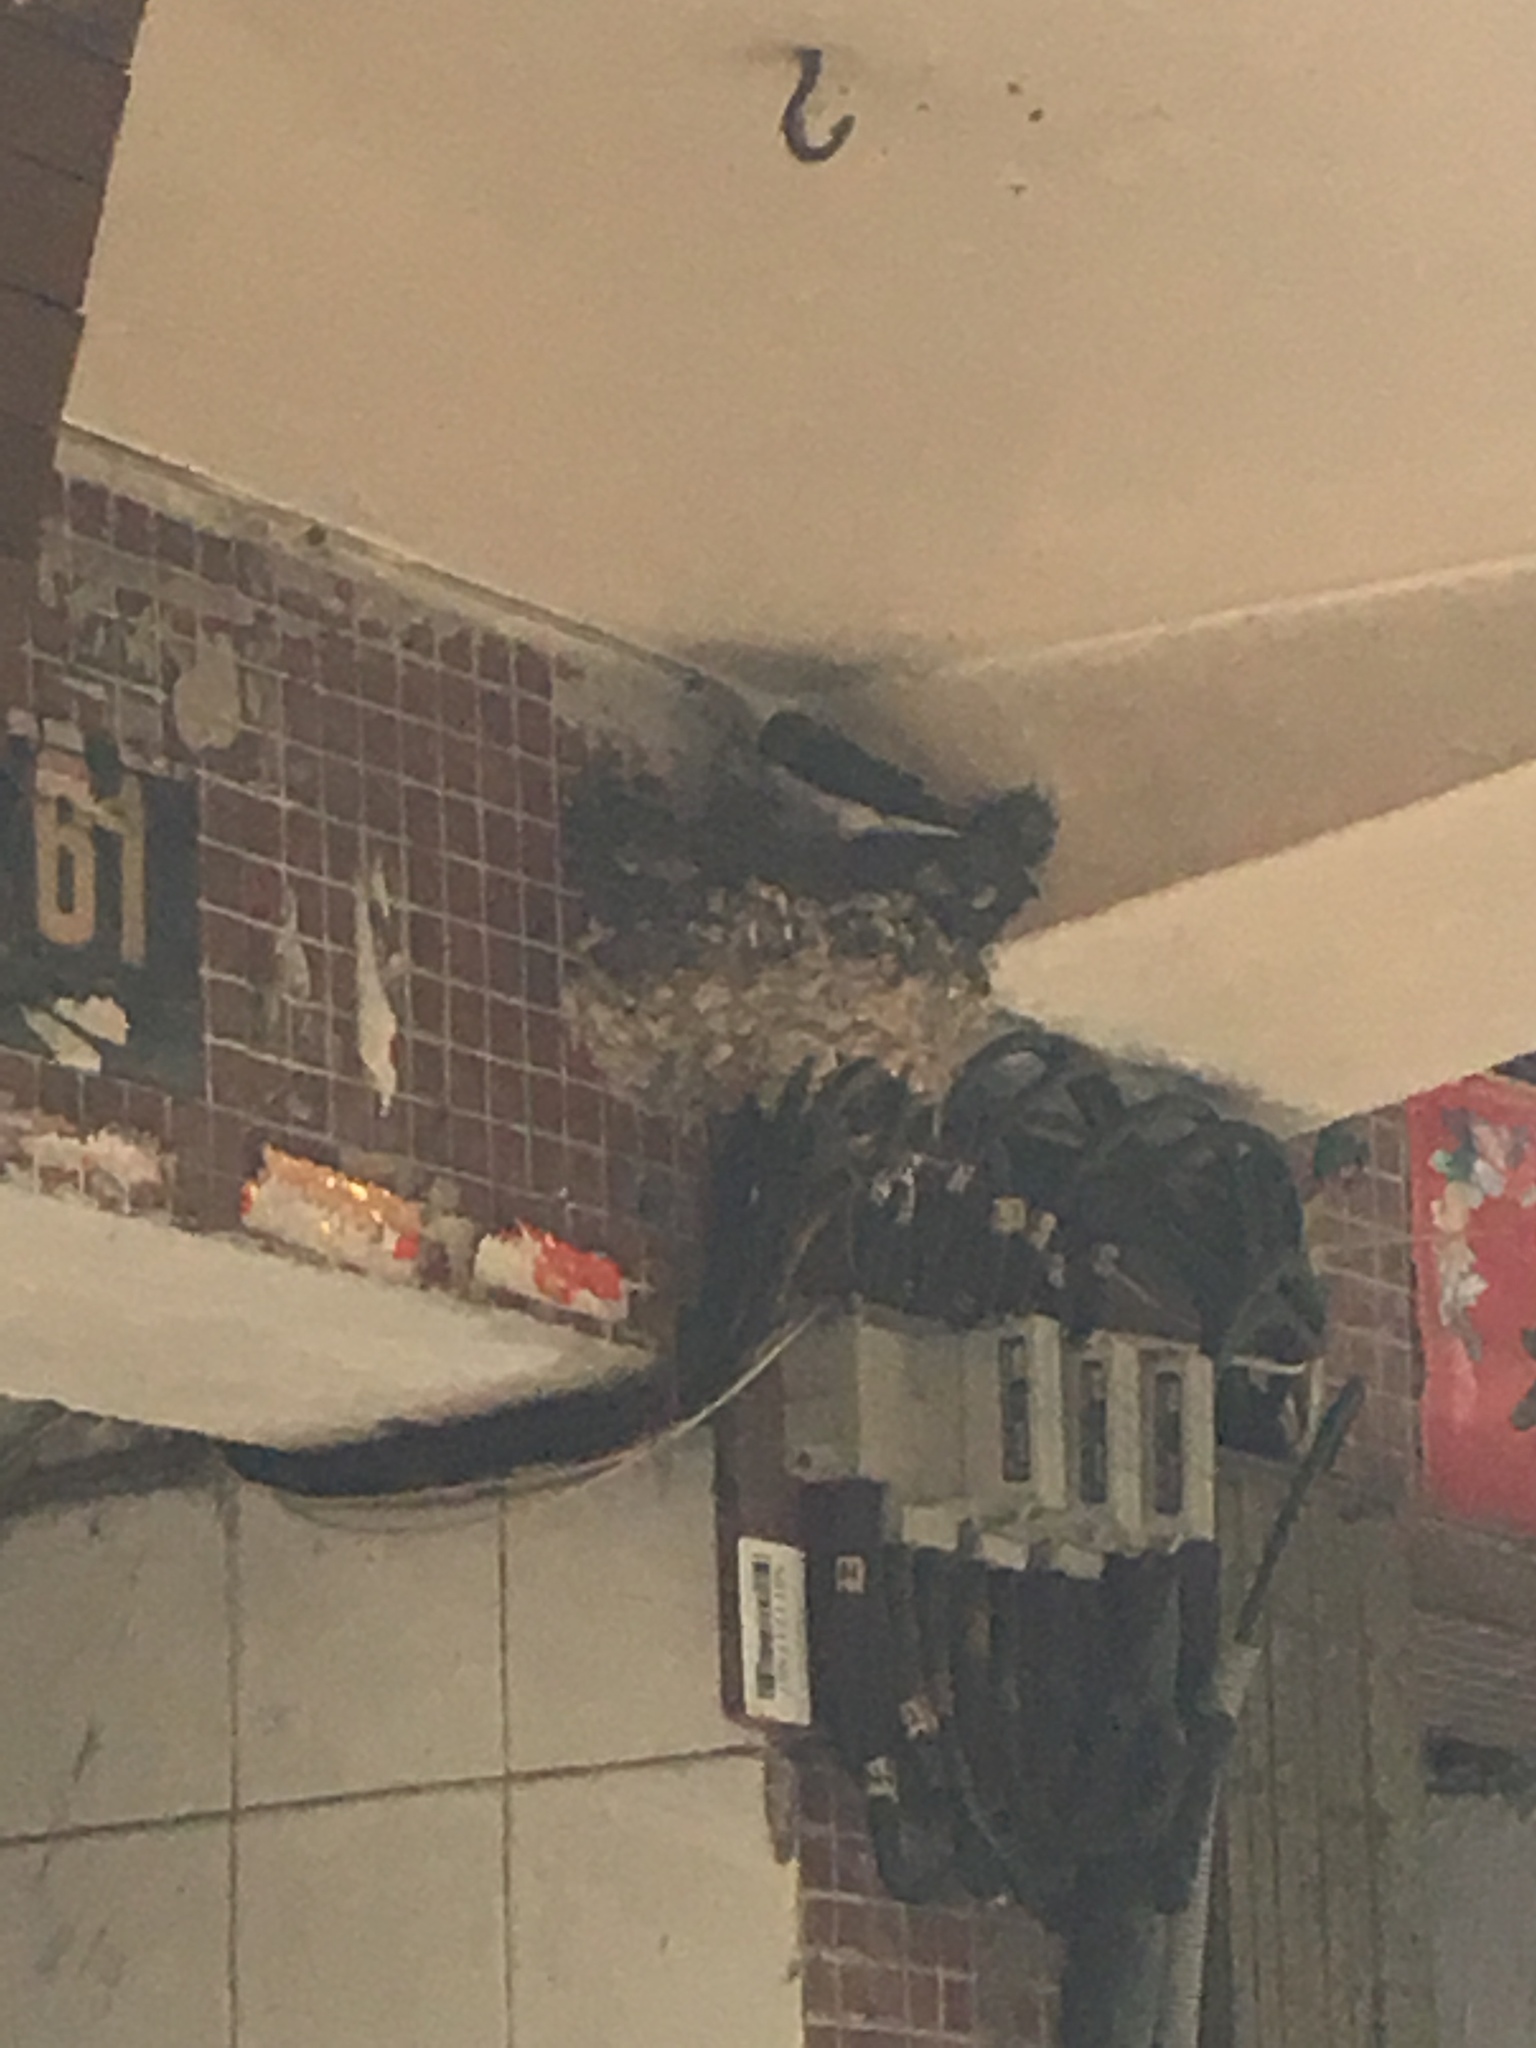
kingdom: Animalia
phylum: Chordata
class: Aves
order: Passeriformes
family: Hirundinidae
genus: Hirundo
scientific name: Hirundo rustica
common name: Barn swallow
